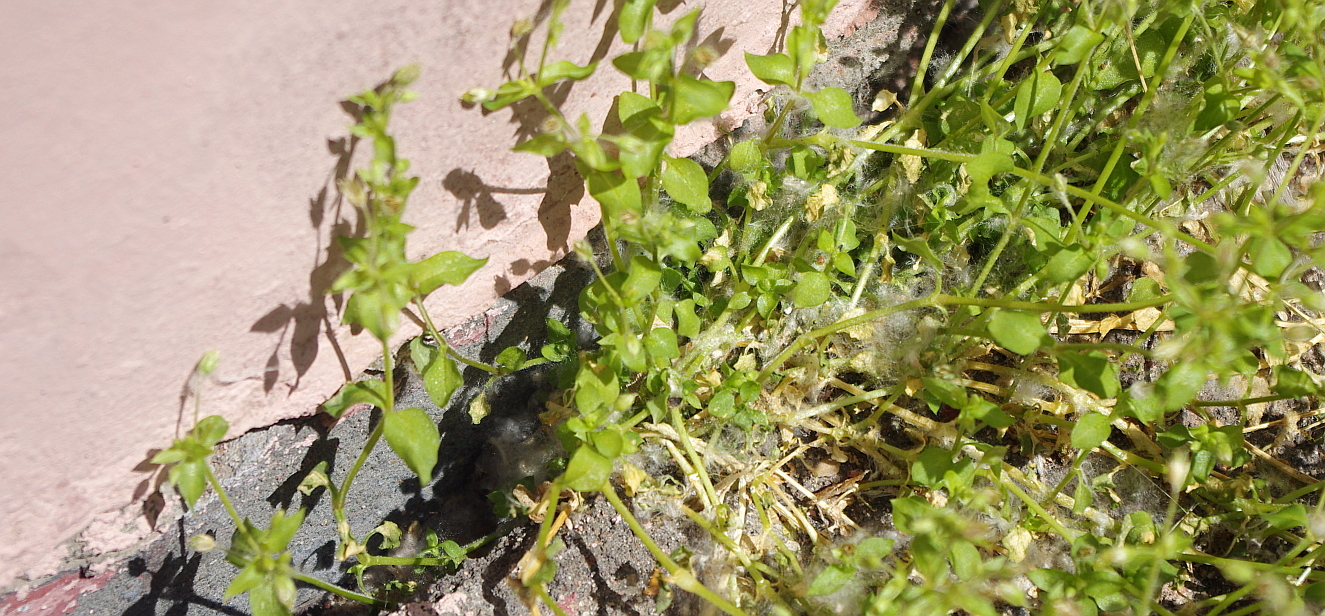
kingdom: Plantae
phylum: Tracheophyta
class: Magnoliopsida
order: Caryophyllales
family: Caryophyllaceae
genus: Stellaria
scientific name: Stellaria media
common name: Common chickweed
